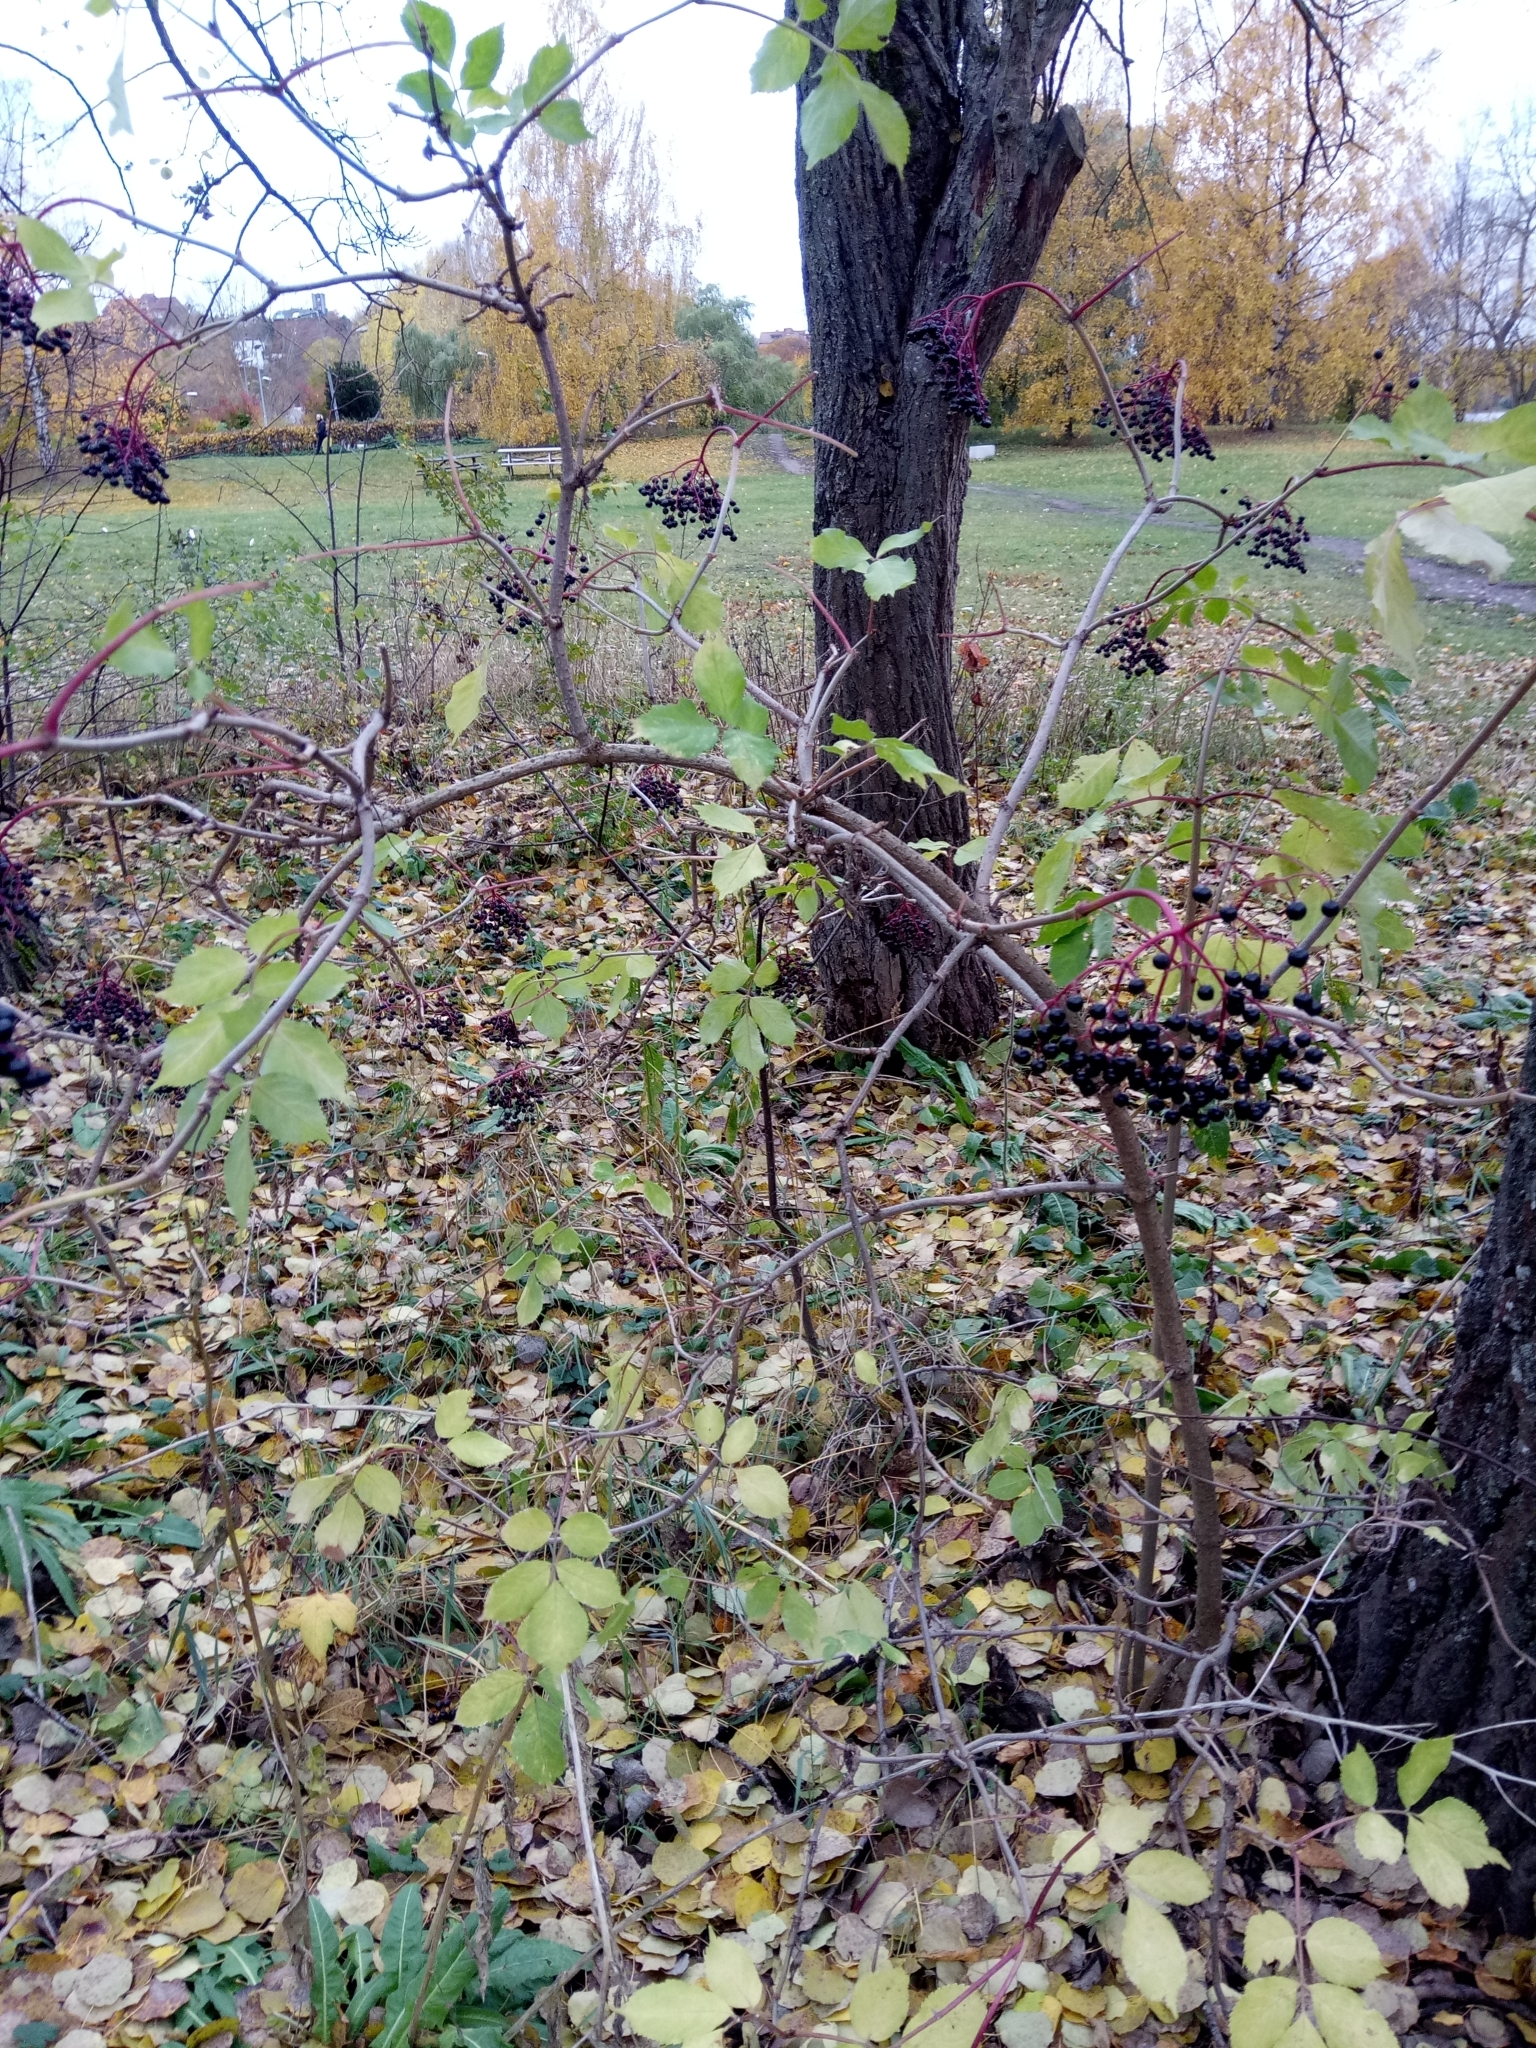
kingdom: Plantae
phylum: Tracheophyta
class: Magnoliopsida
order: Dipsacales
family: Viburnaceae
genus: Sambucus
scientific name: Sambucus nigra
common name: Elder
